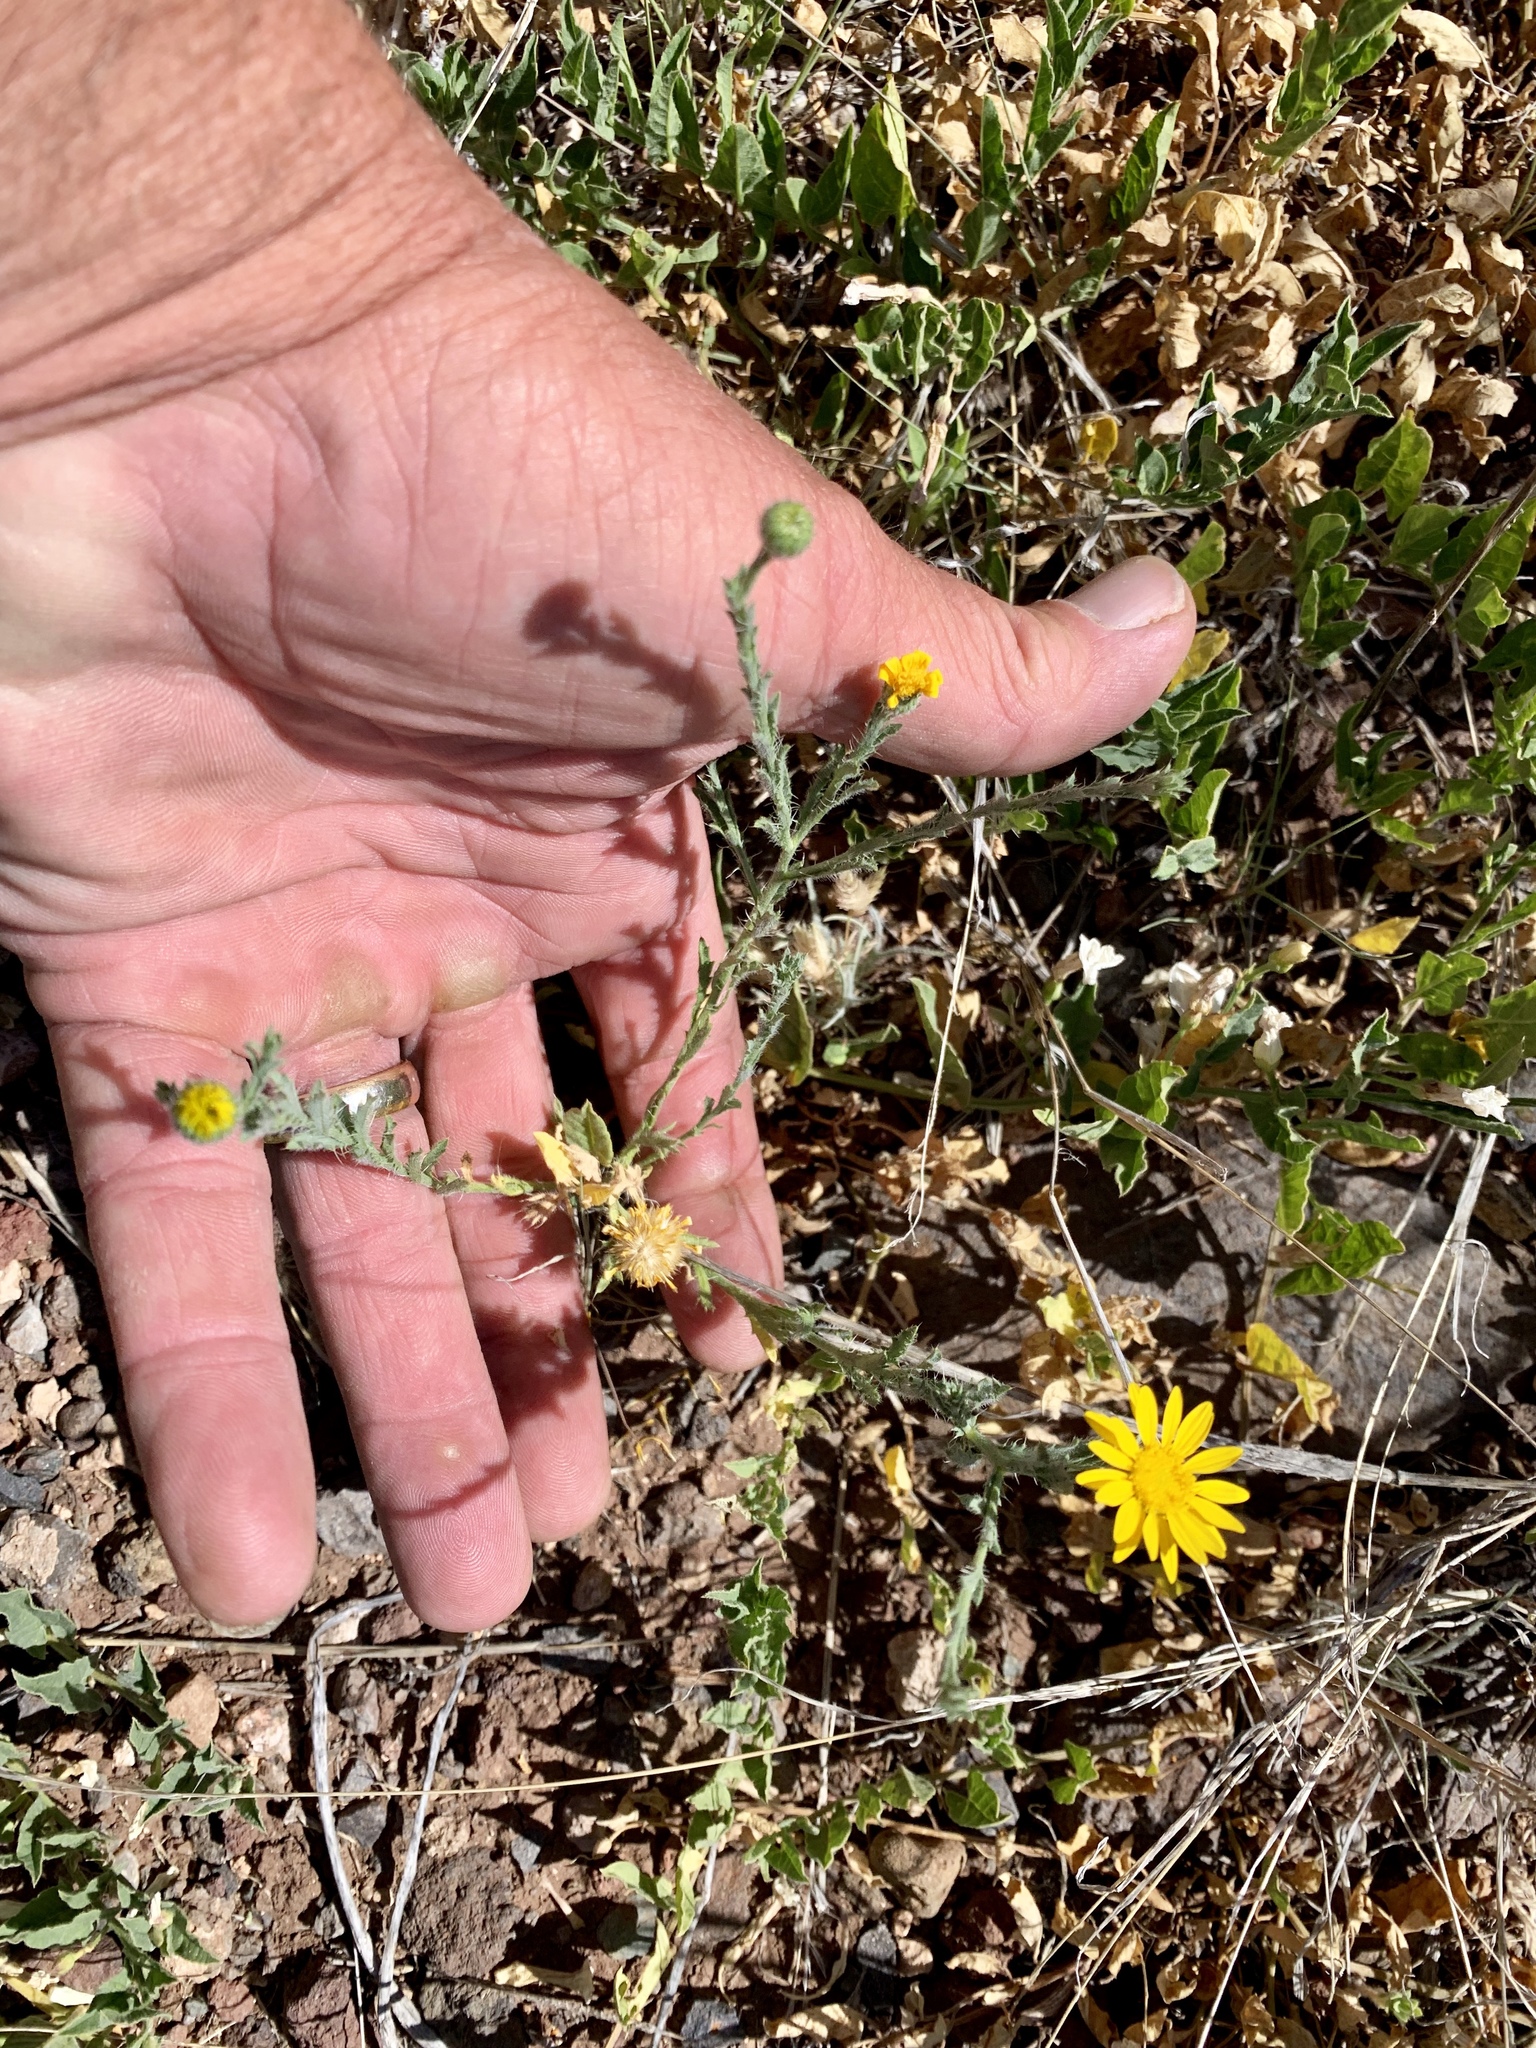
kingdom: Plantae
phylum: Tracheophyta
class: Magnoliopsida
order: Asterales
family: Asteraceae
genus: Xanthisma
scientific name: Xanthisma spinulosum
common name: Spiny goldenweed
